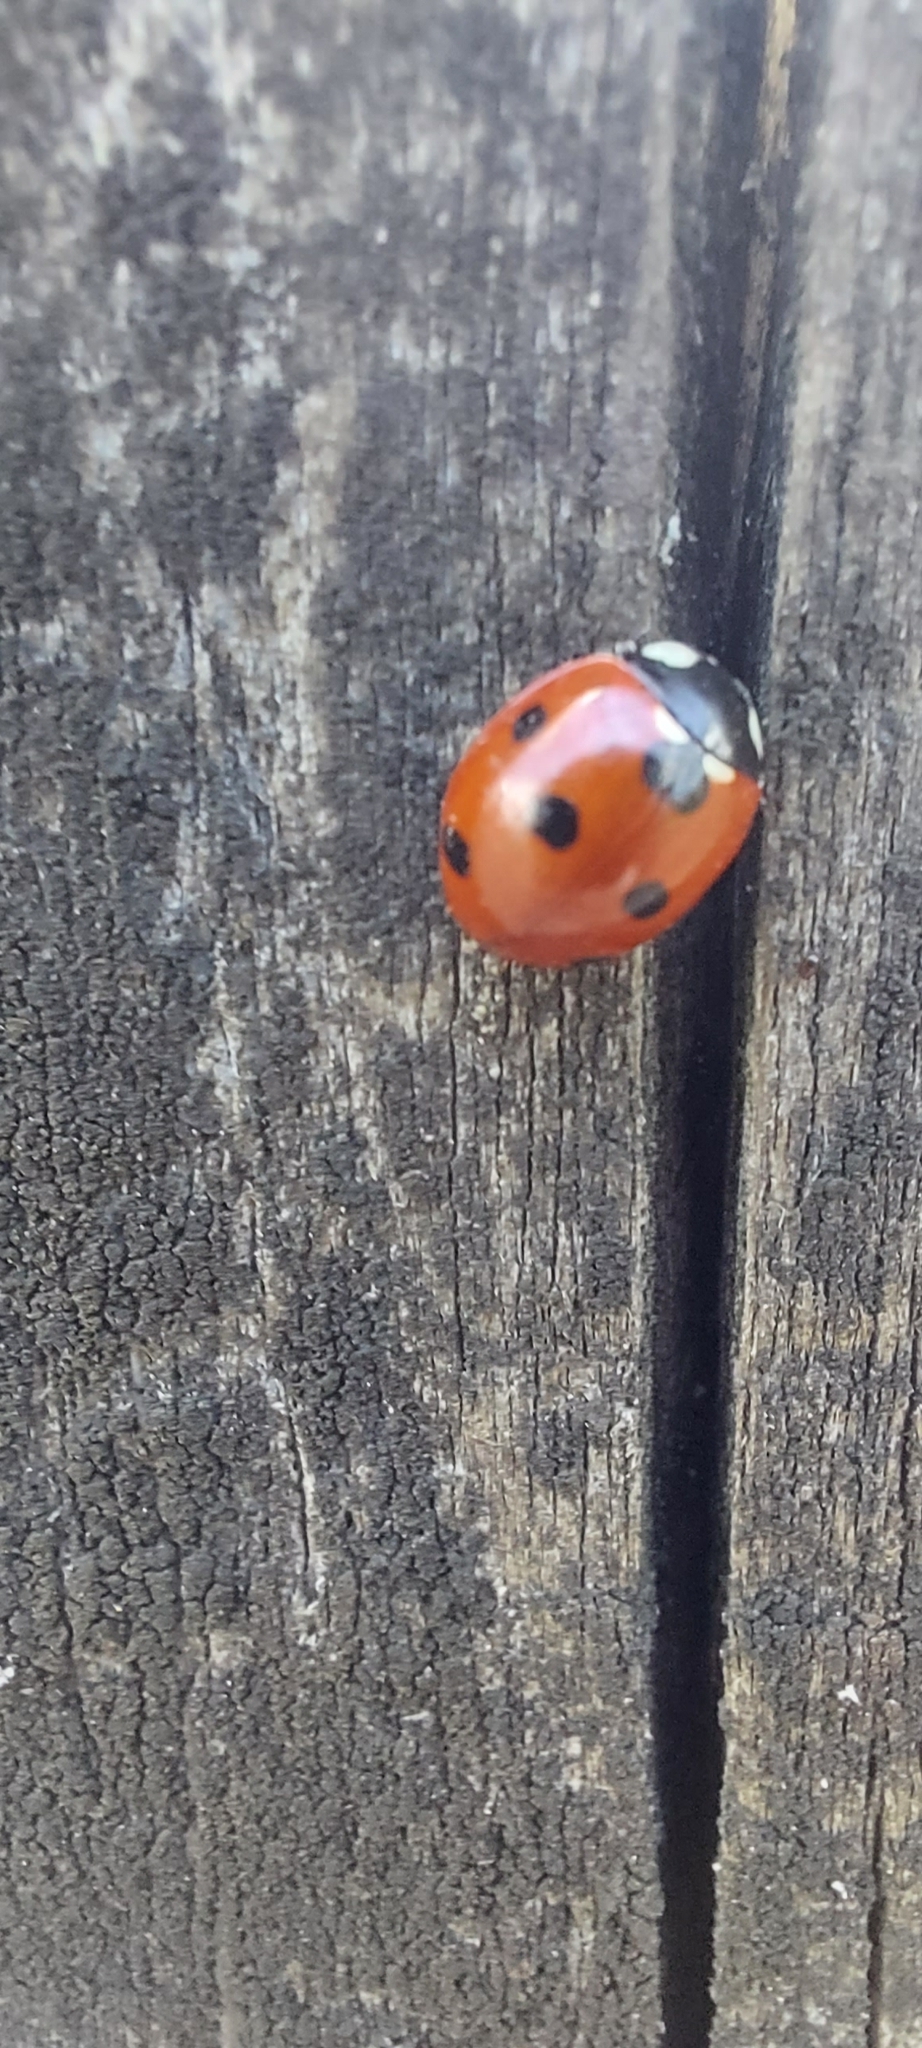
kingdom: Animalia
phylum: Arthropoda
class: Insecta
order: Coleoptera
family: Coccinellidae
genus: Coccinella
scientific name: Coccinella septempunctata
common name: Sevenspotted lady beetle
